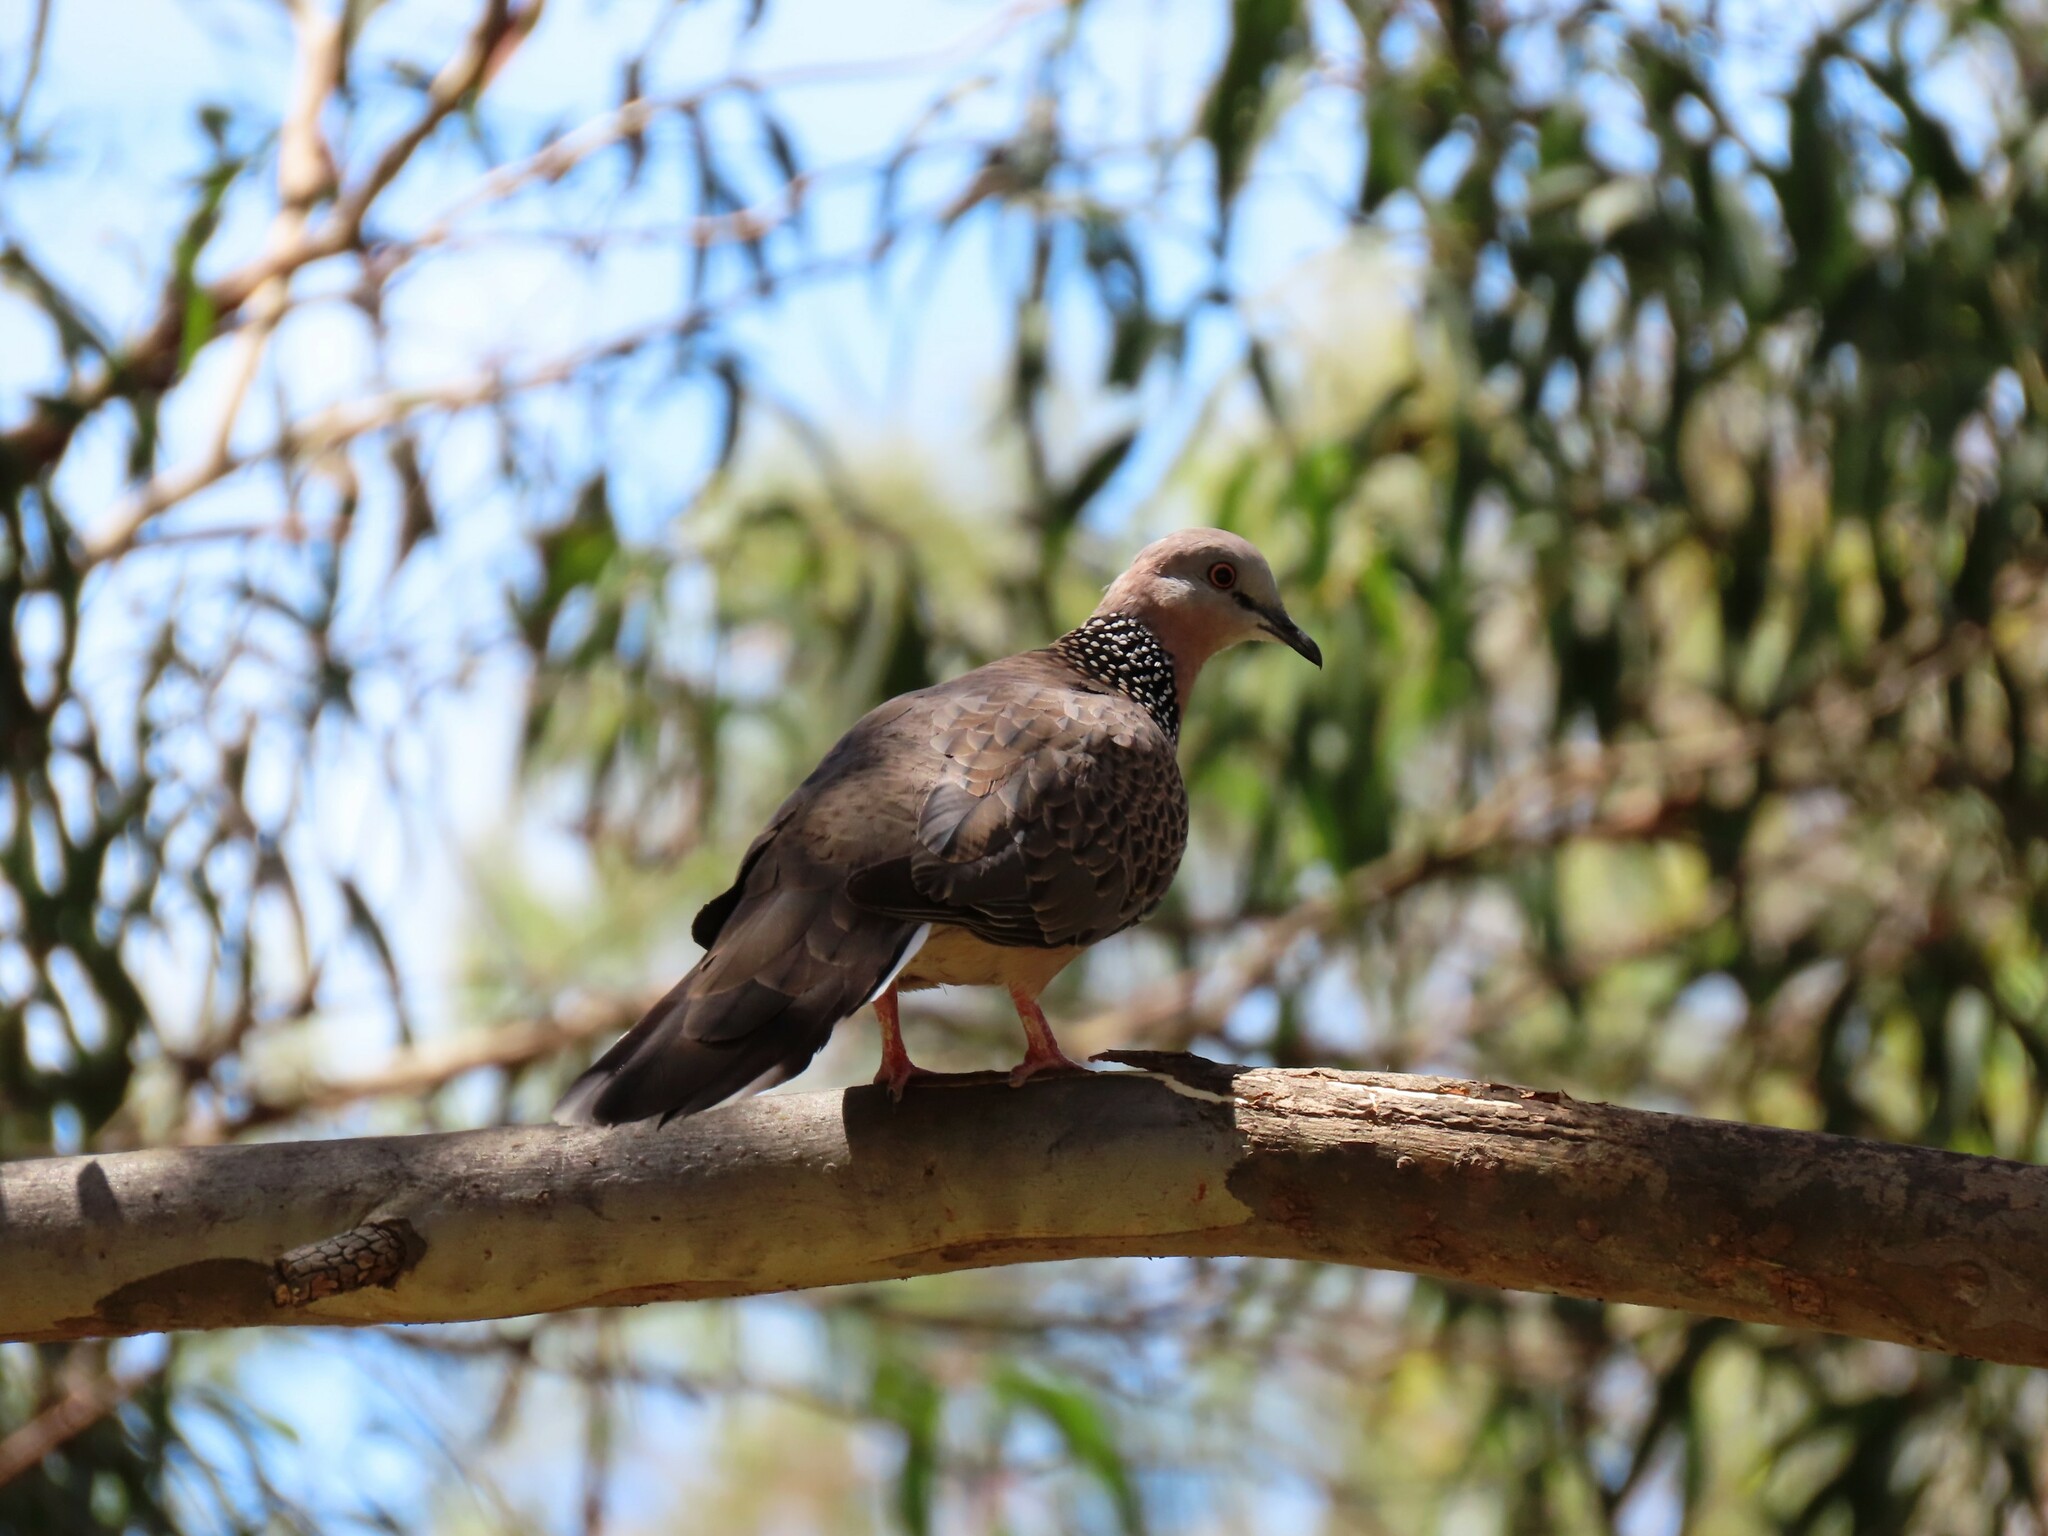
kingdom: Animalia
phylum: Chordata
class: Aves
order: Columbiformes
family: Columbidae
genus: Spilopelia
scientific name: Spilopelia chinensis
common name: Spotted dove
